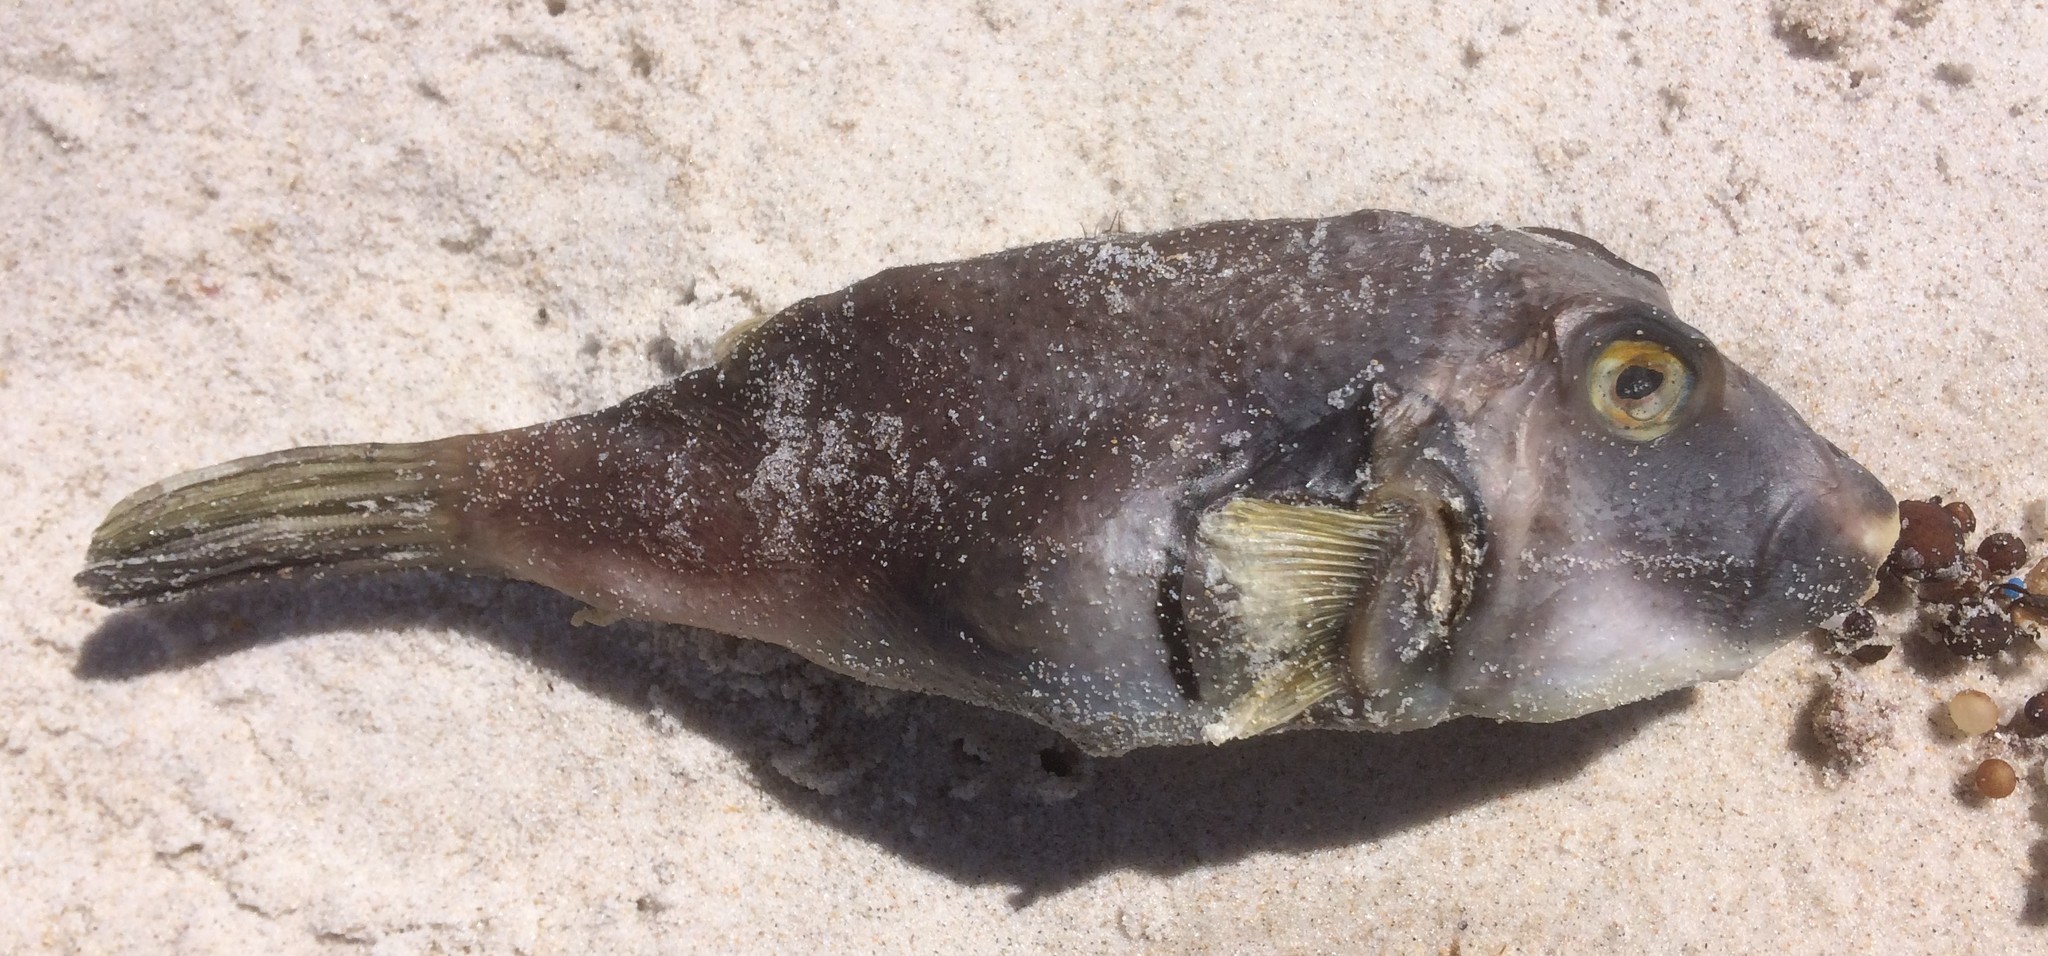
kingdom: Animalia
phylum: Chordata
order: Tetraodontiformes
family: Tetraodontidae
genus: Omegophora
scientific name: Omegophora armilla
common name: Ringed pufferfish
